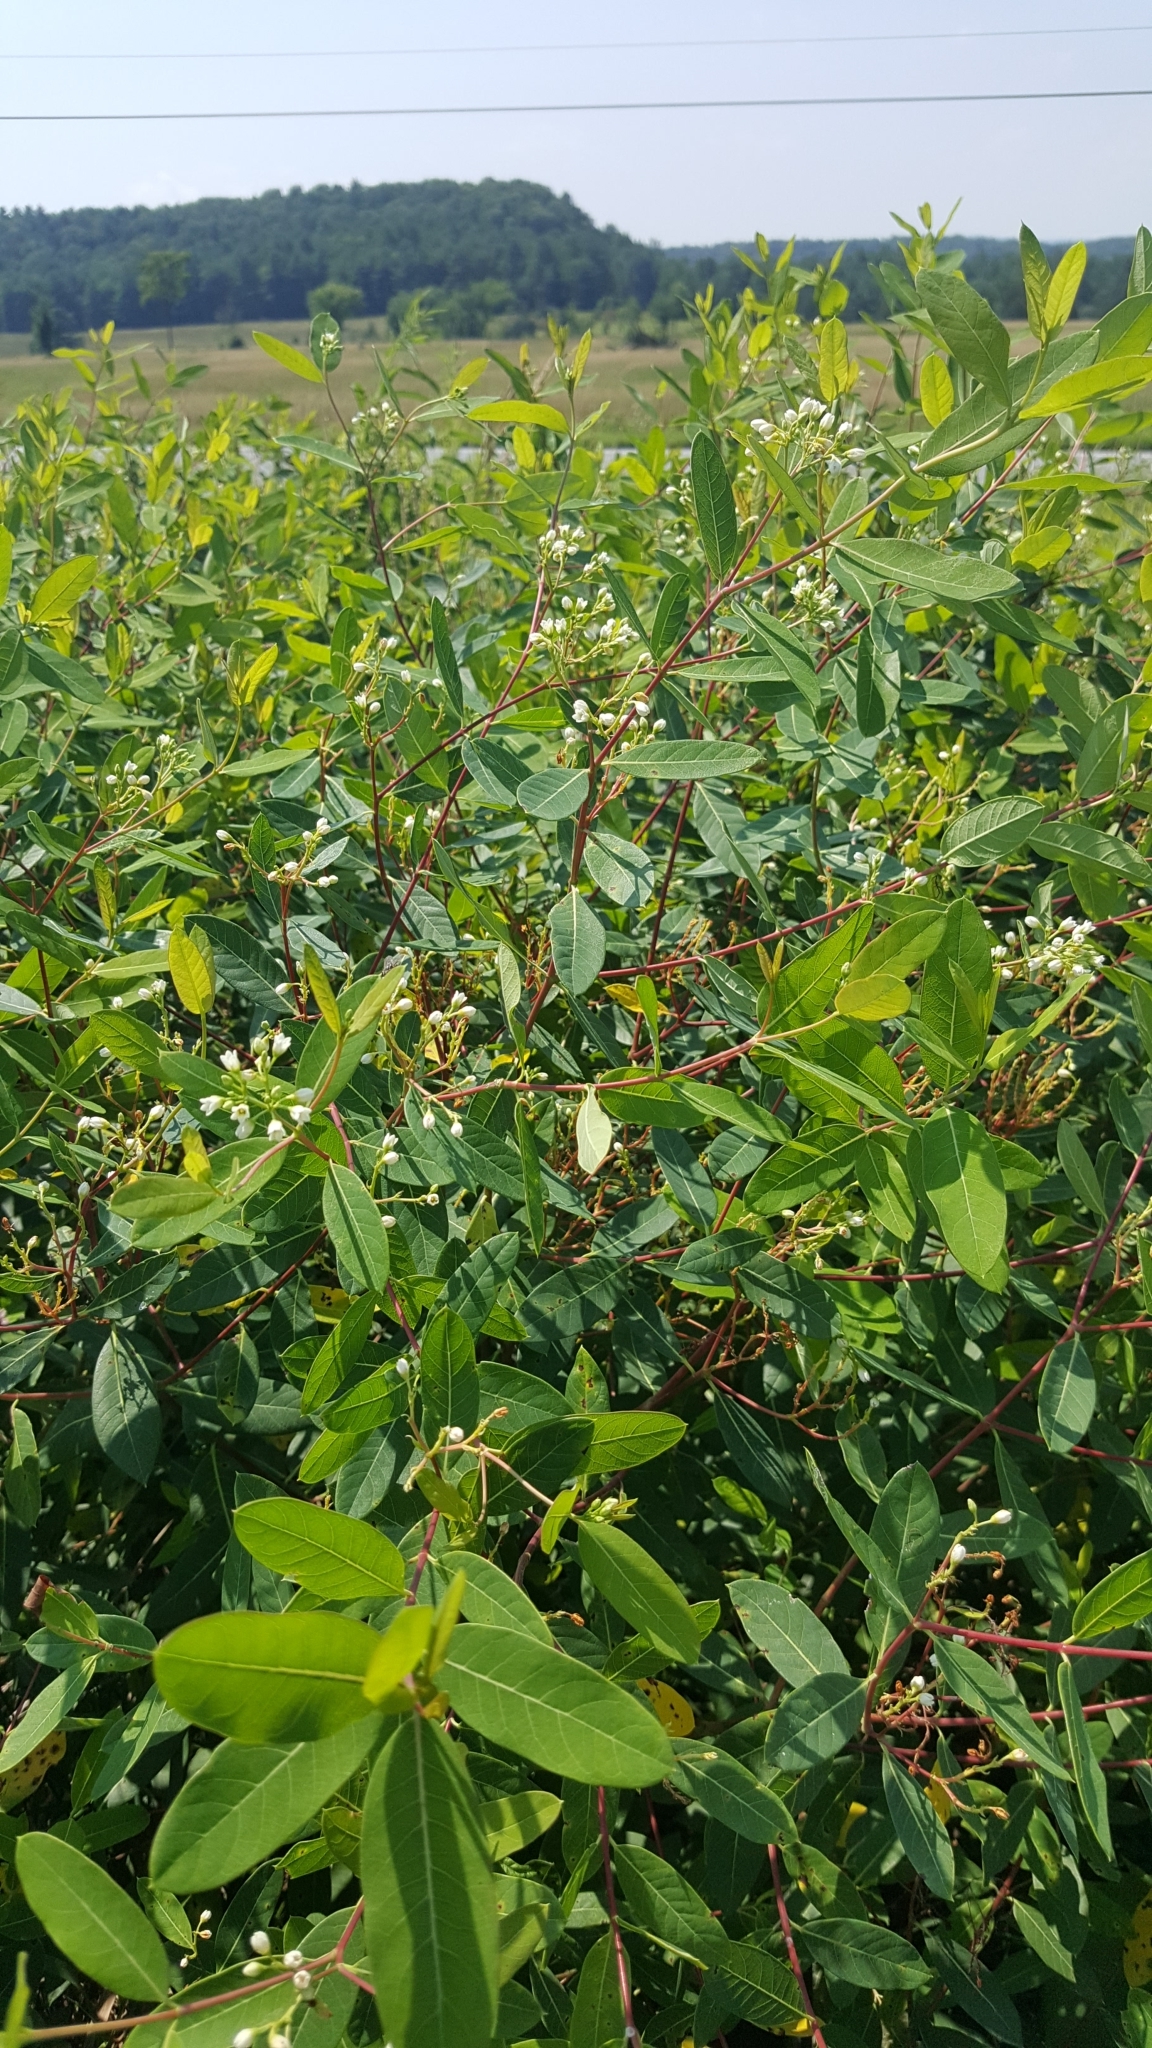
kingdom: Plantae
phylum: Tracheophyta
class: Magnoliopsida
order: Gentianales
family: Apocynaceae
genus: Apocynum
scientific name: Apocynum cannabinum
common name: Hemp dogbane
